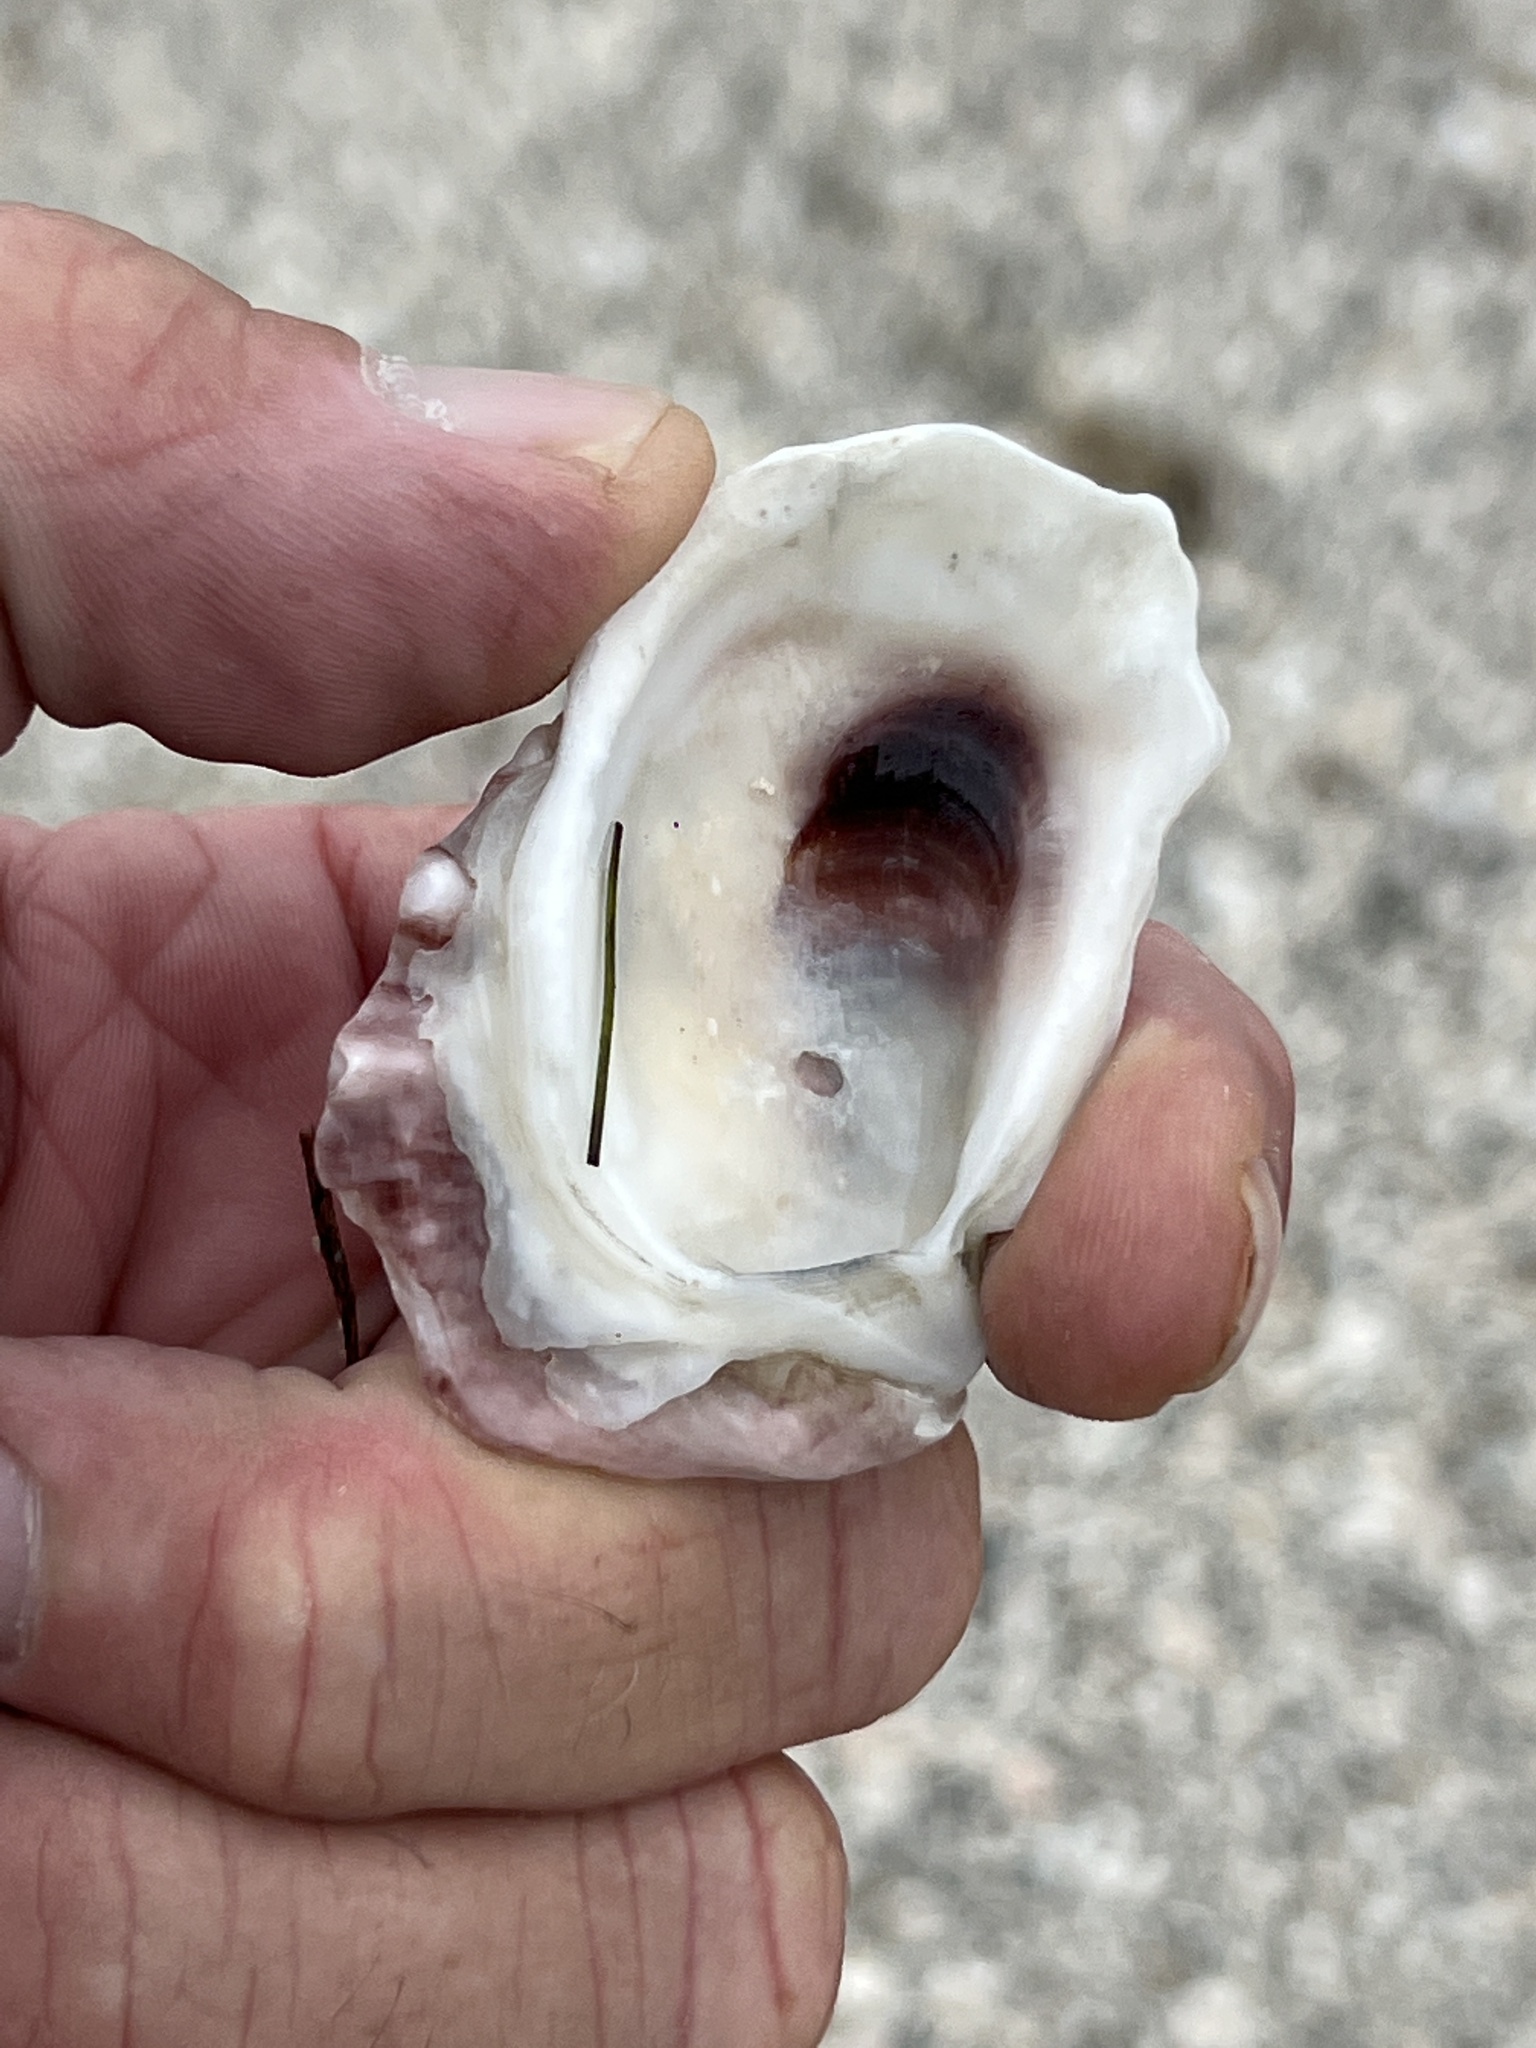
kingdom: Animalia
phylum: Mollusca
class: Bivalvia
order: Ostreida
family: Ostreidae
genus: Crassostrea
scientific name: Crassostrea virginica
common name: American oyster
